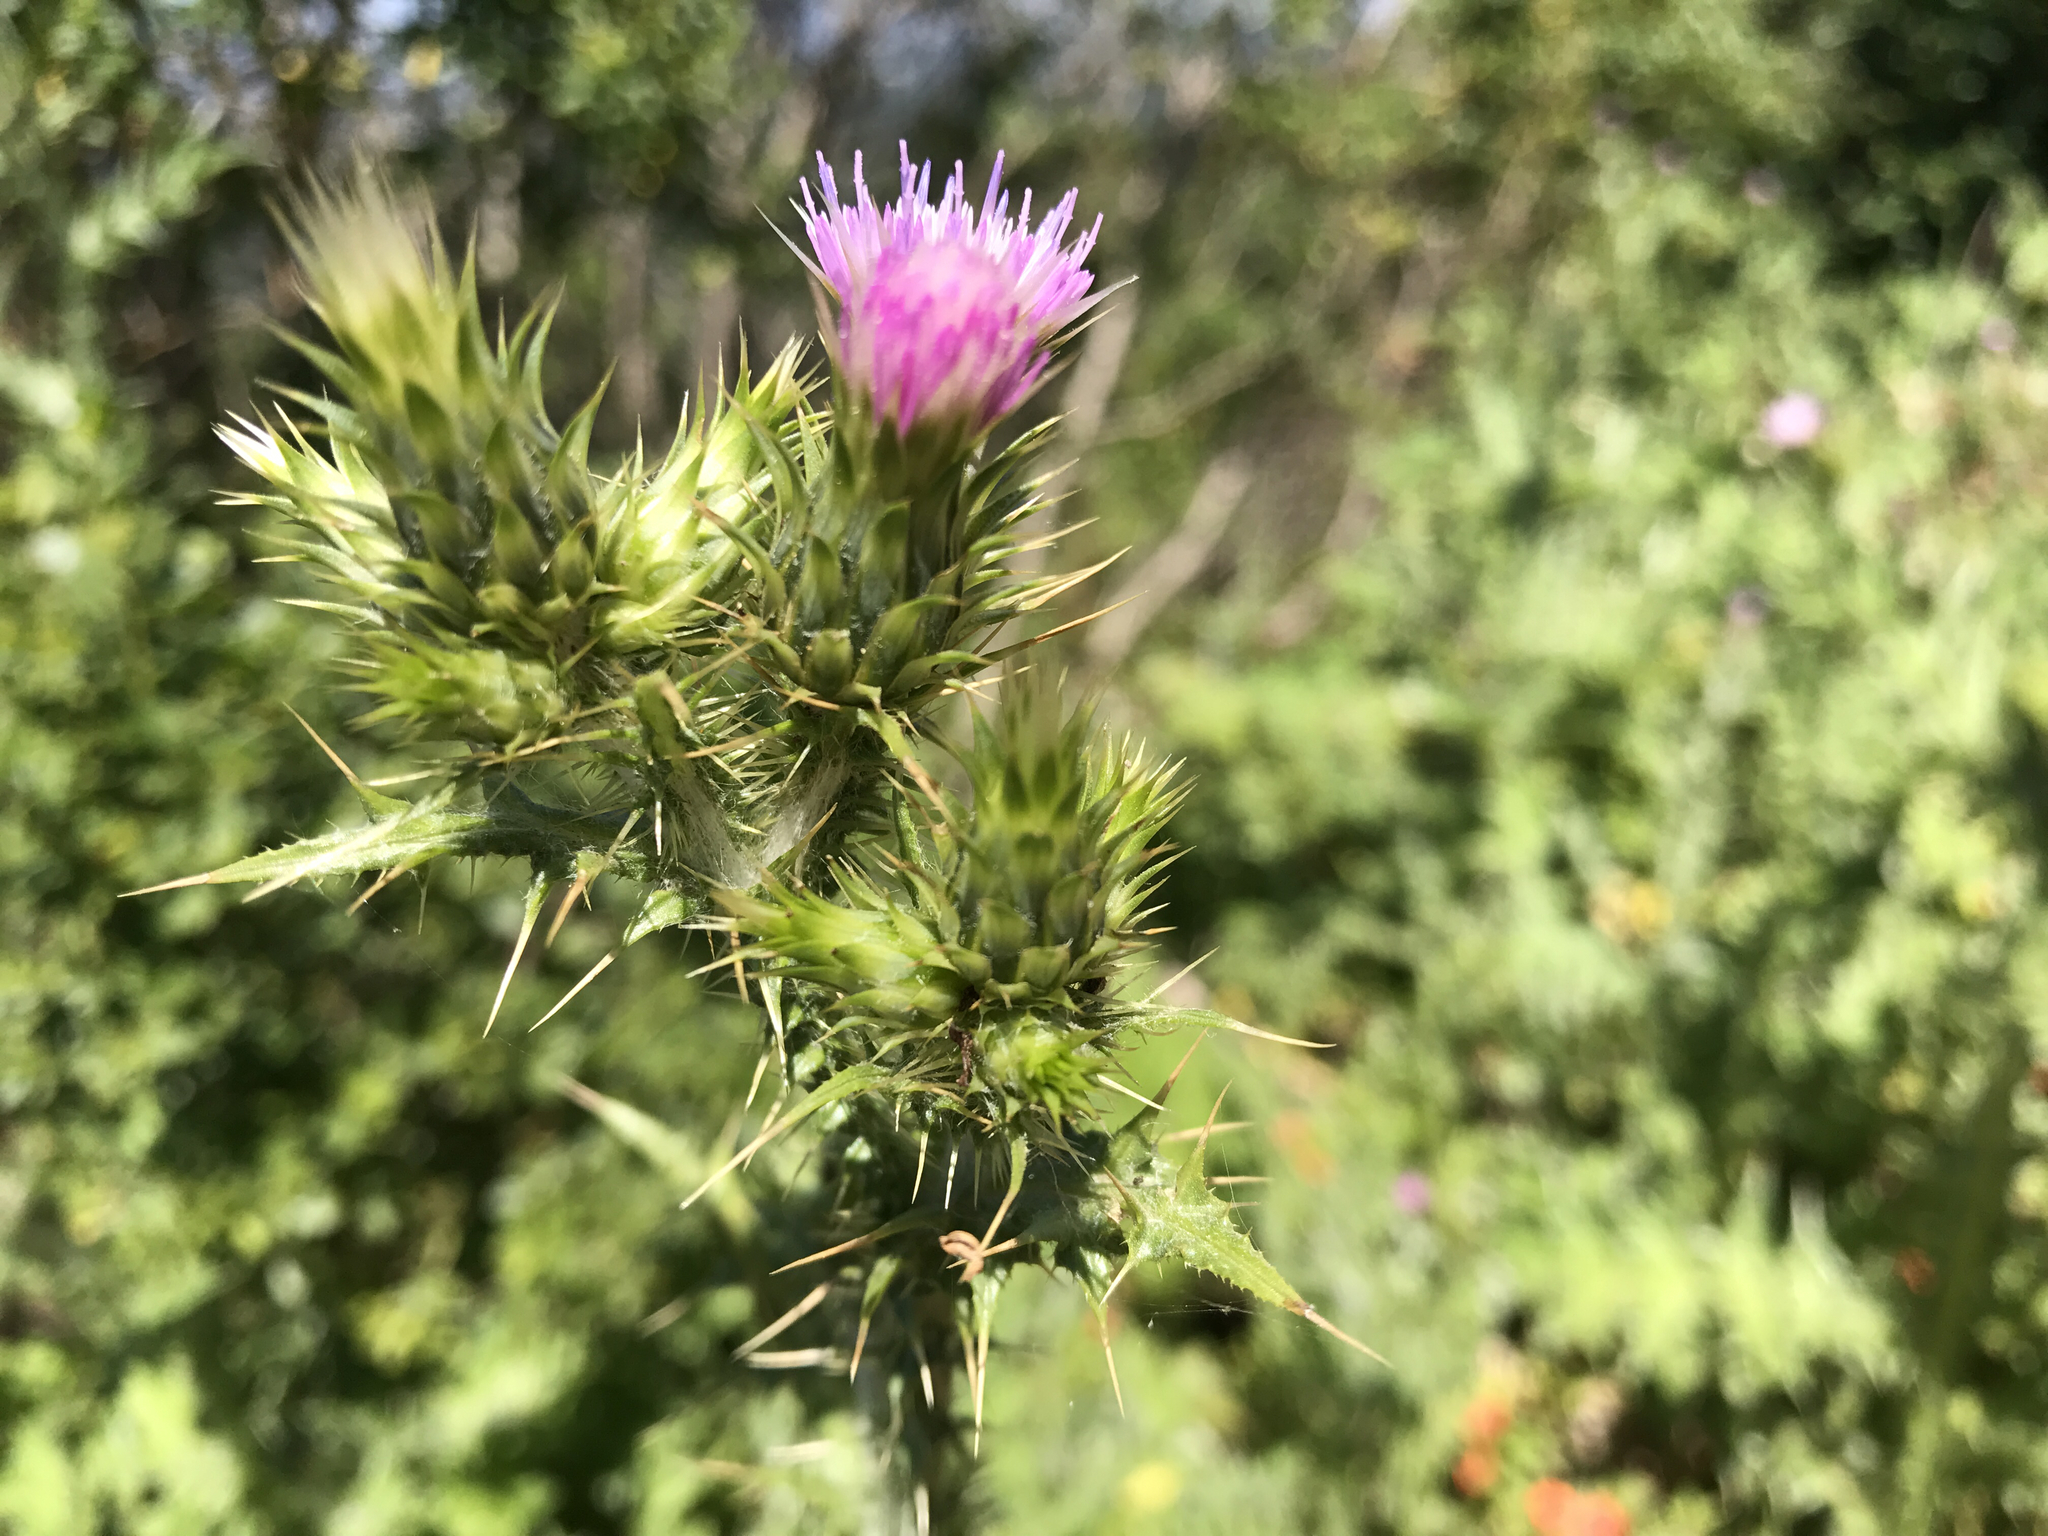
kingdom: Plantae
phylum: Tracheophyta
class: Magnoliopsida
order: Asterales
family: Asteraceae
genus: Carduus
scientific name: Carduus pycnocephalus
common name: Plymouth thistle
